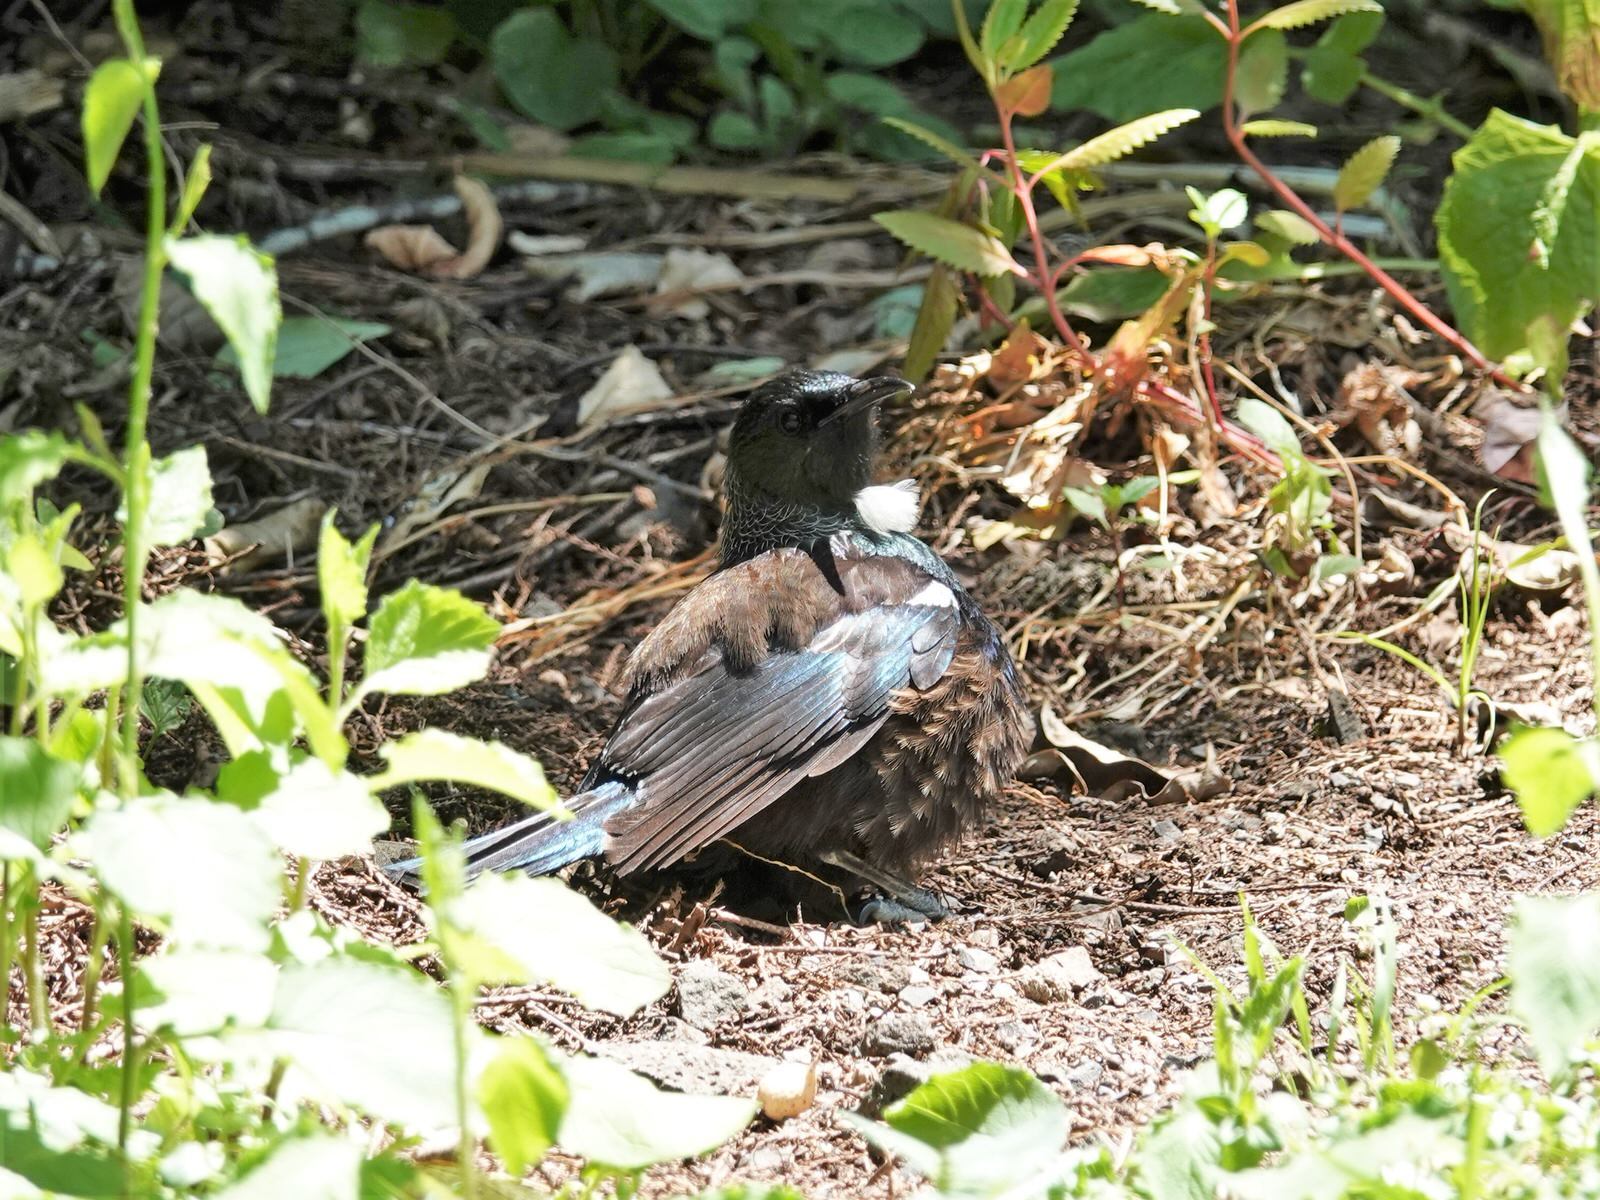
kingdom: Animalia
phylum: Chordata
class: Aves
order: Passeriformes
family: Meliphagidae
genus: Prosthemadera
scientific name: Prosthemadera novaeseelandiae
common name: Tui
